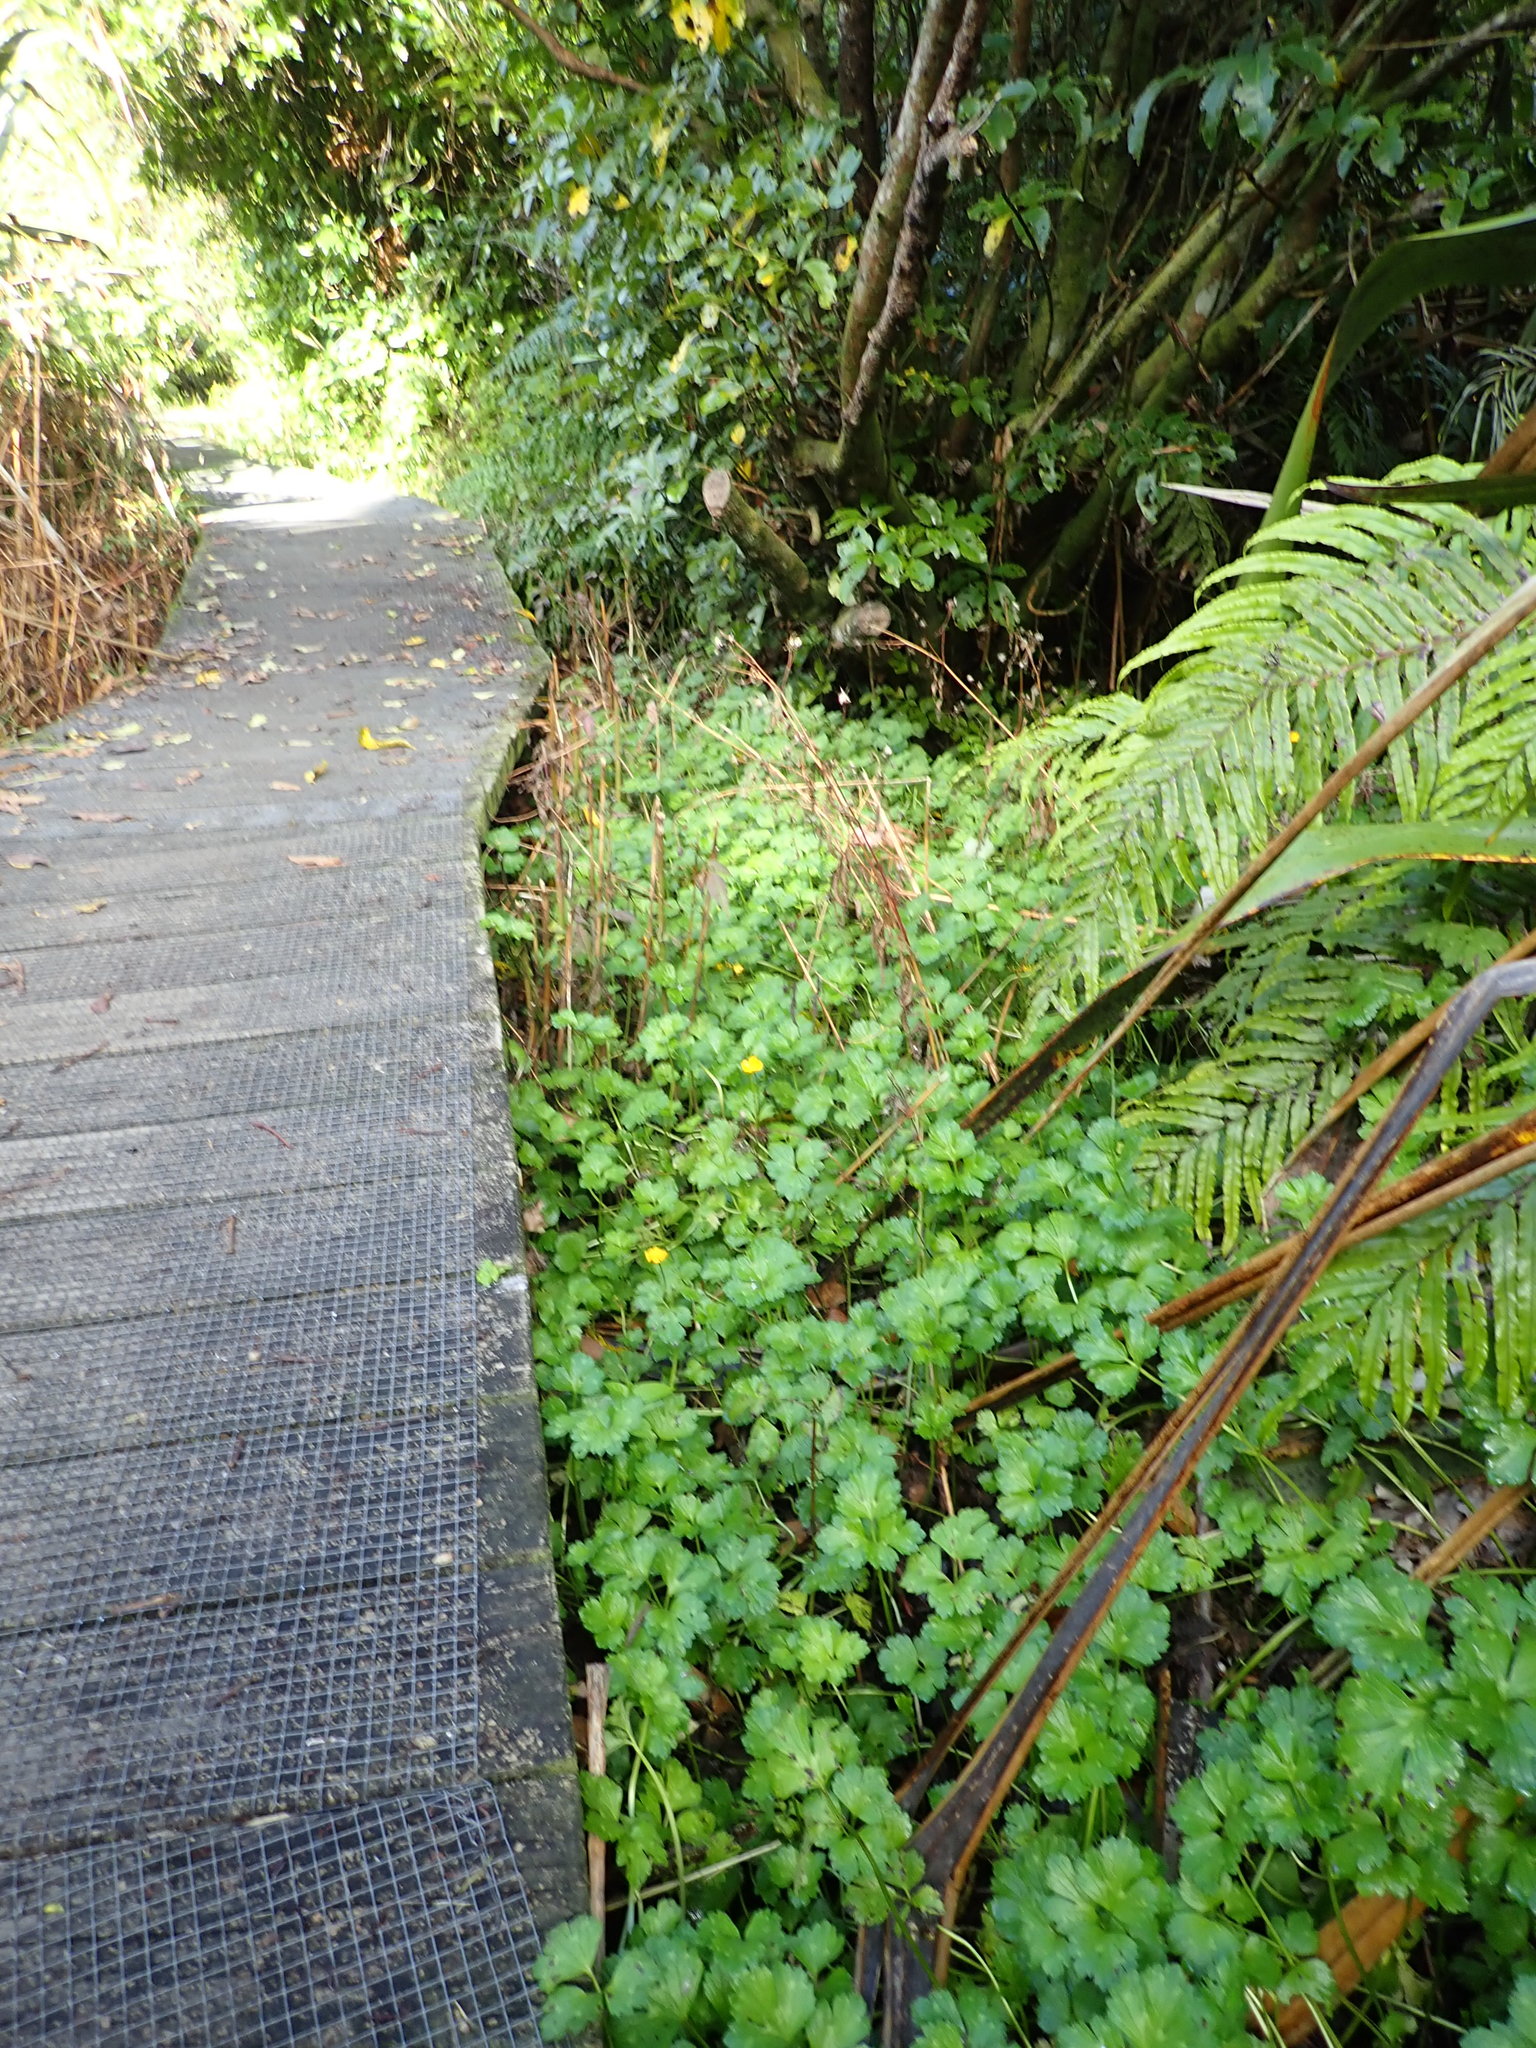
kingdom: Plantae
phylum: Tracheophyta
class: Magnoliopsida
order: Ranunculales
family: Ranunculaceae
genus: Ranunculus
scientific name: Ranunculus repens
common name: Creeping buttercup
